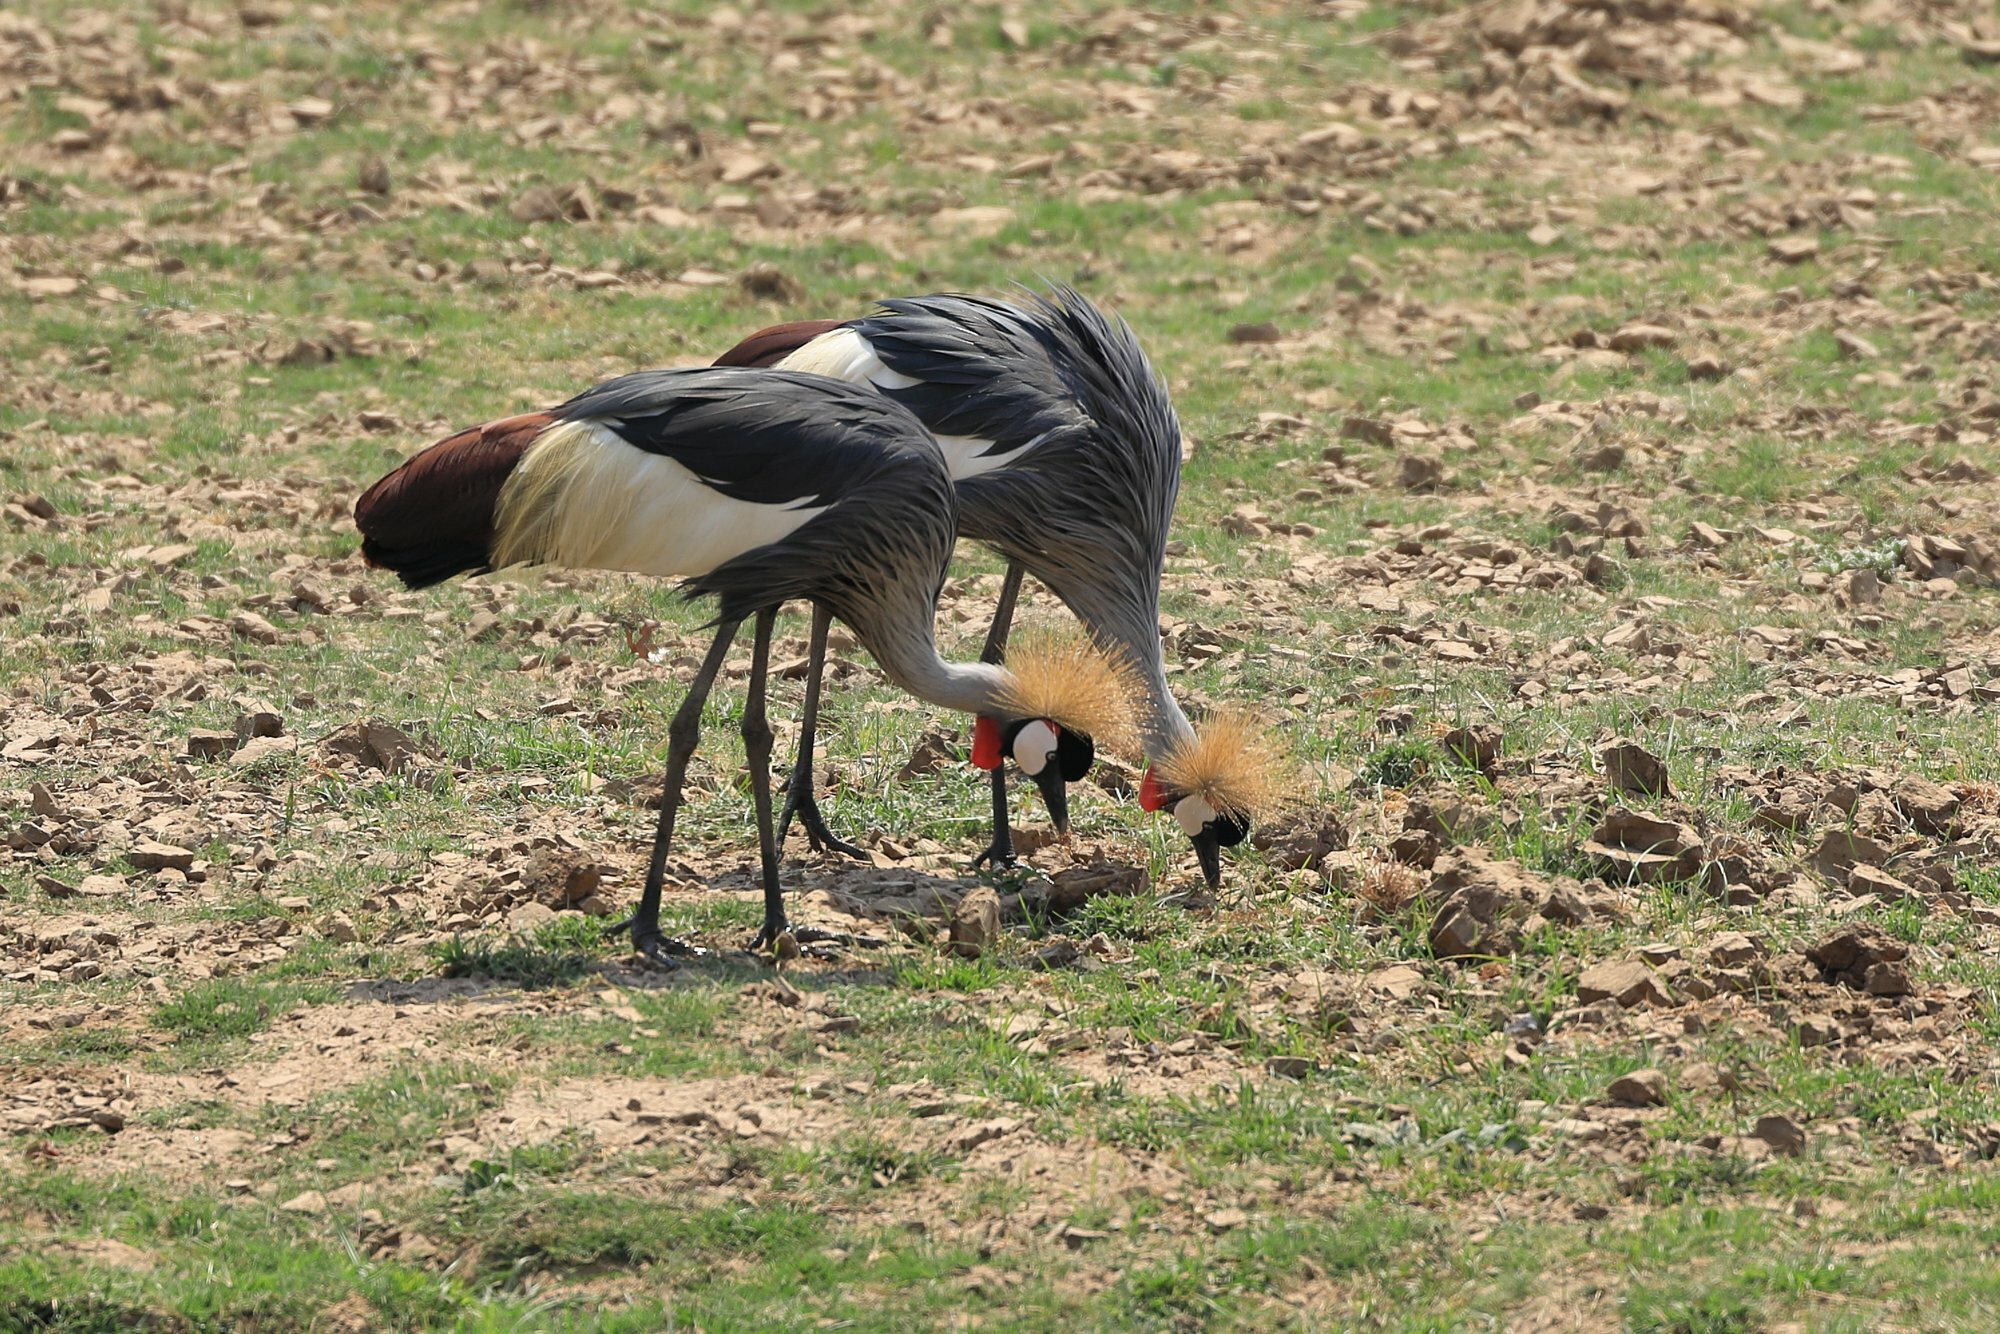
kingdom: Animalia
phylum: Chordata
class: Aves
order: Gruiformes
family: Gruidae
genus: Balearica
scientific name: Balearica regulorum
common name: Grey crowned crane
